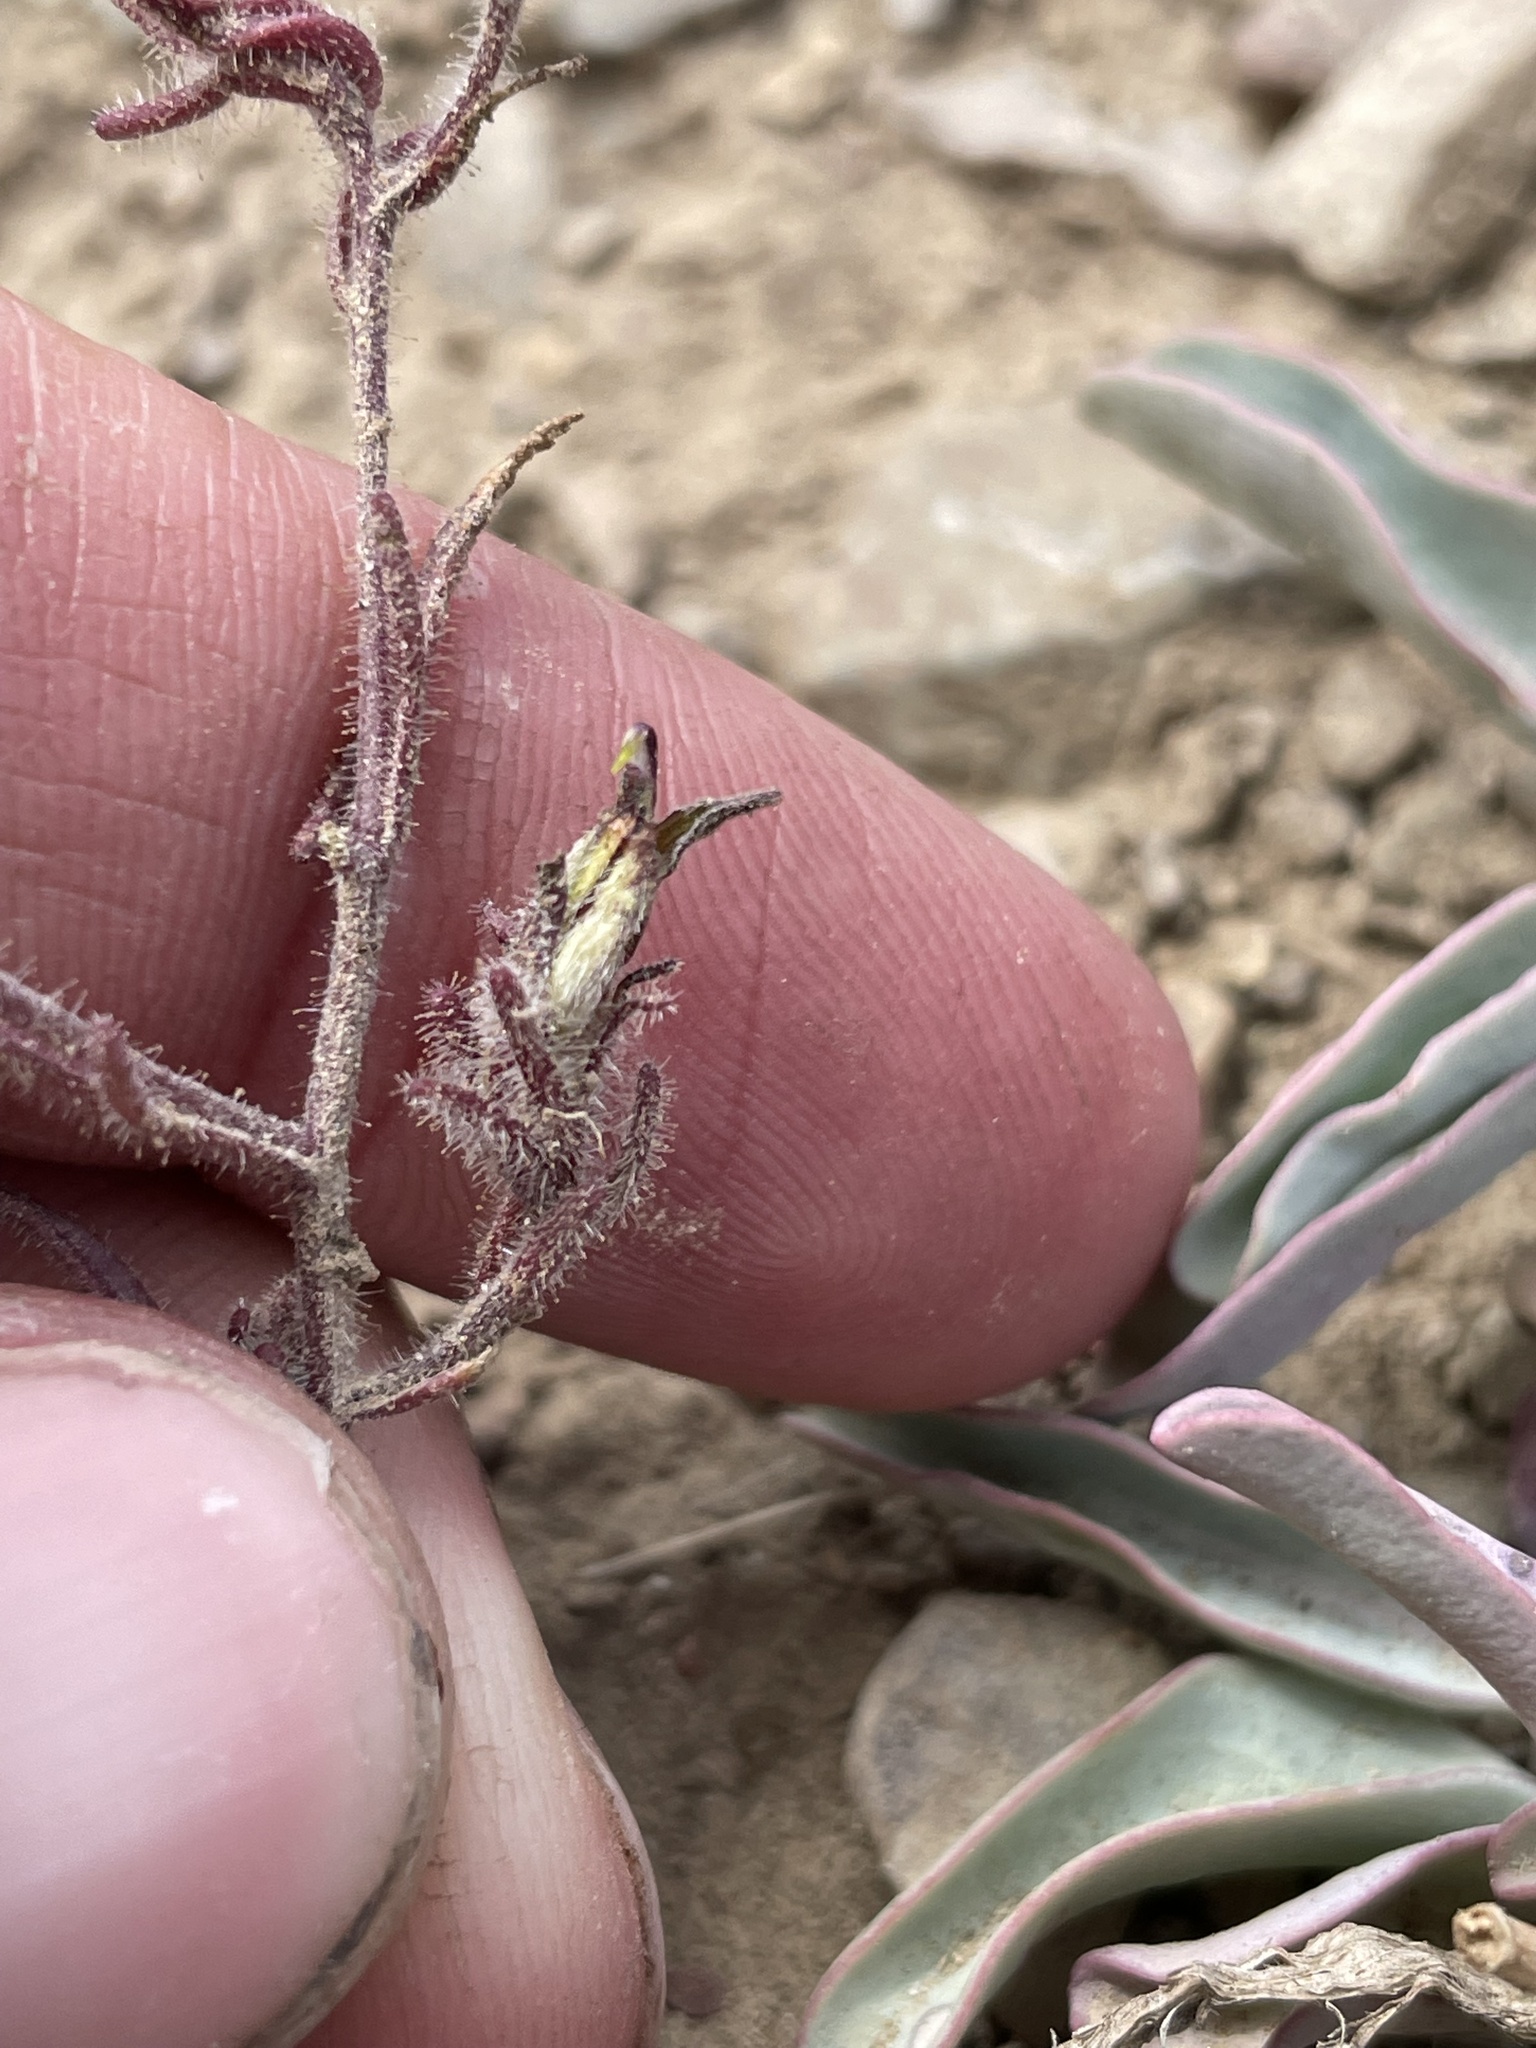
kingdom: Plantae
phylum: Tracheophyta
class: Magnoliopsida
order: Lamiales
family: Orobanchaceae
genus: Cordylanthus
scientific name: Cordylanthus kingii
